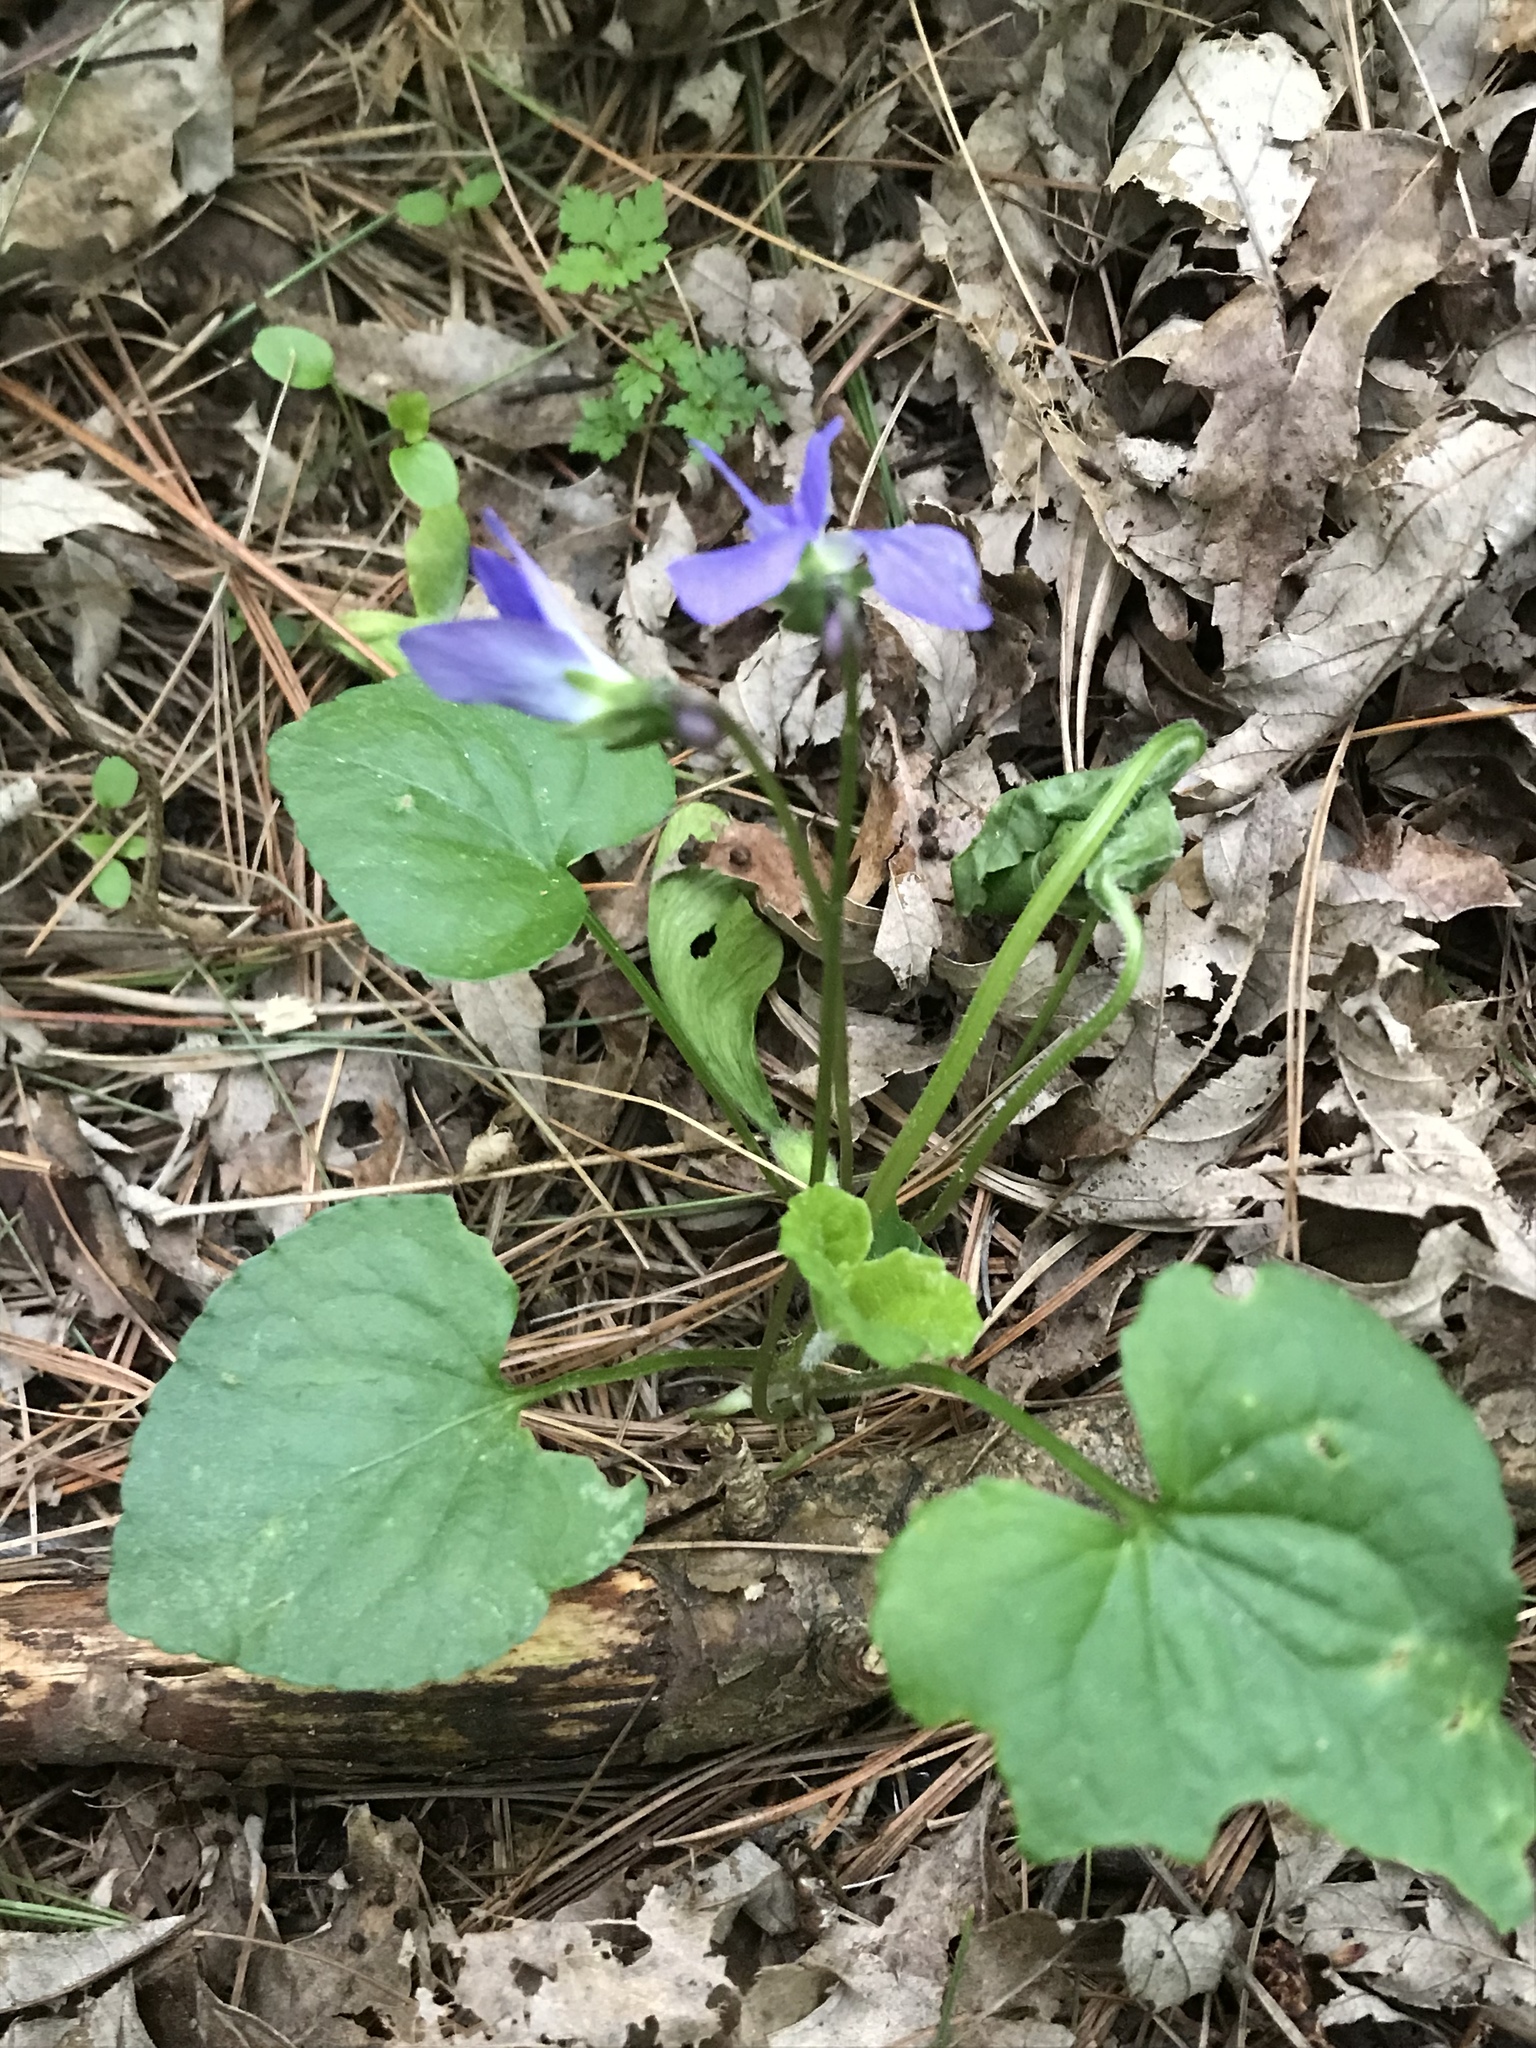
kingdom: Plantae
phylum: Tracheophyta
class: Magnoliopsida
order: Malpighiales
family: Violaceae
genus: Viola
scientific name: Viola sororia
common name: Dooryard violet
